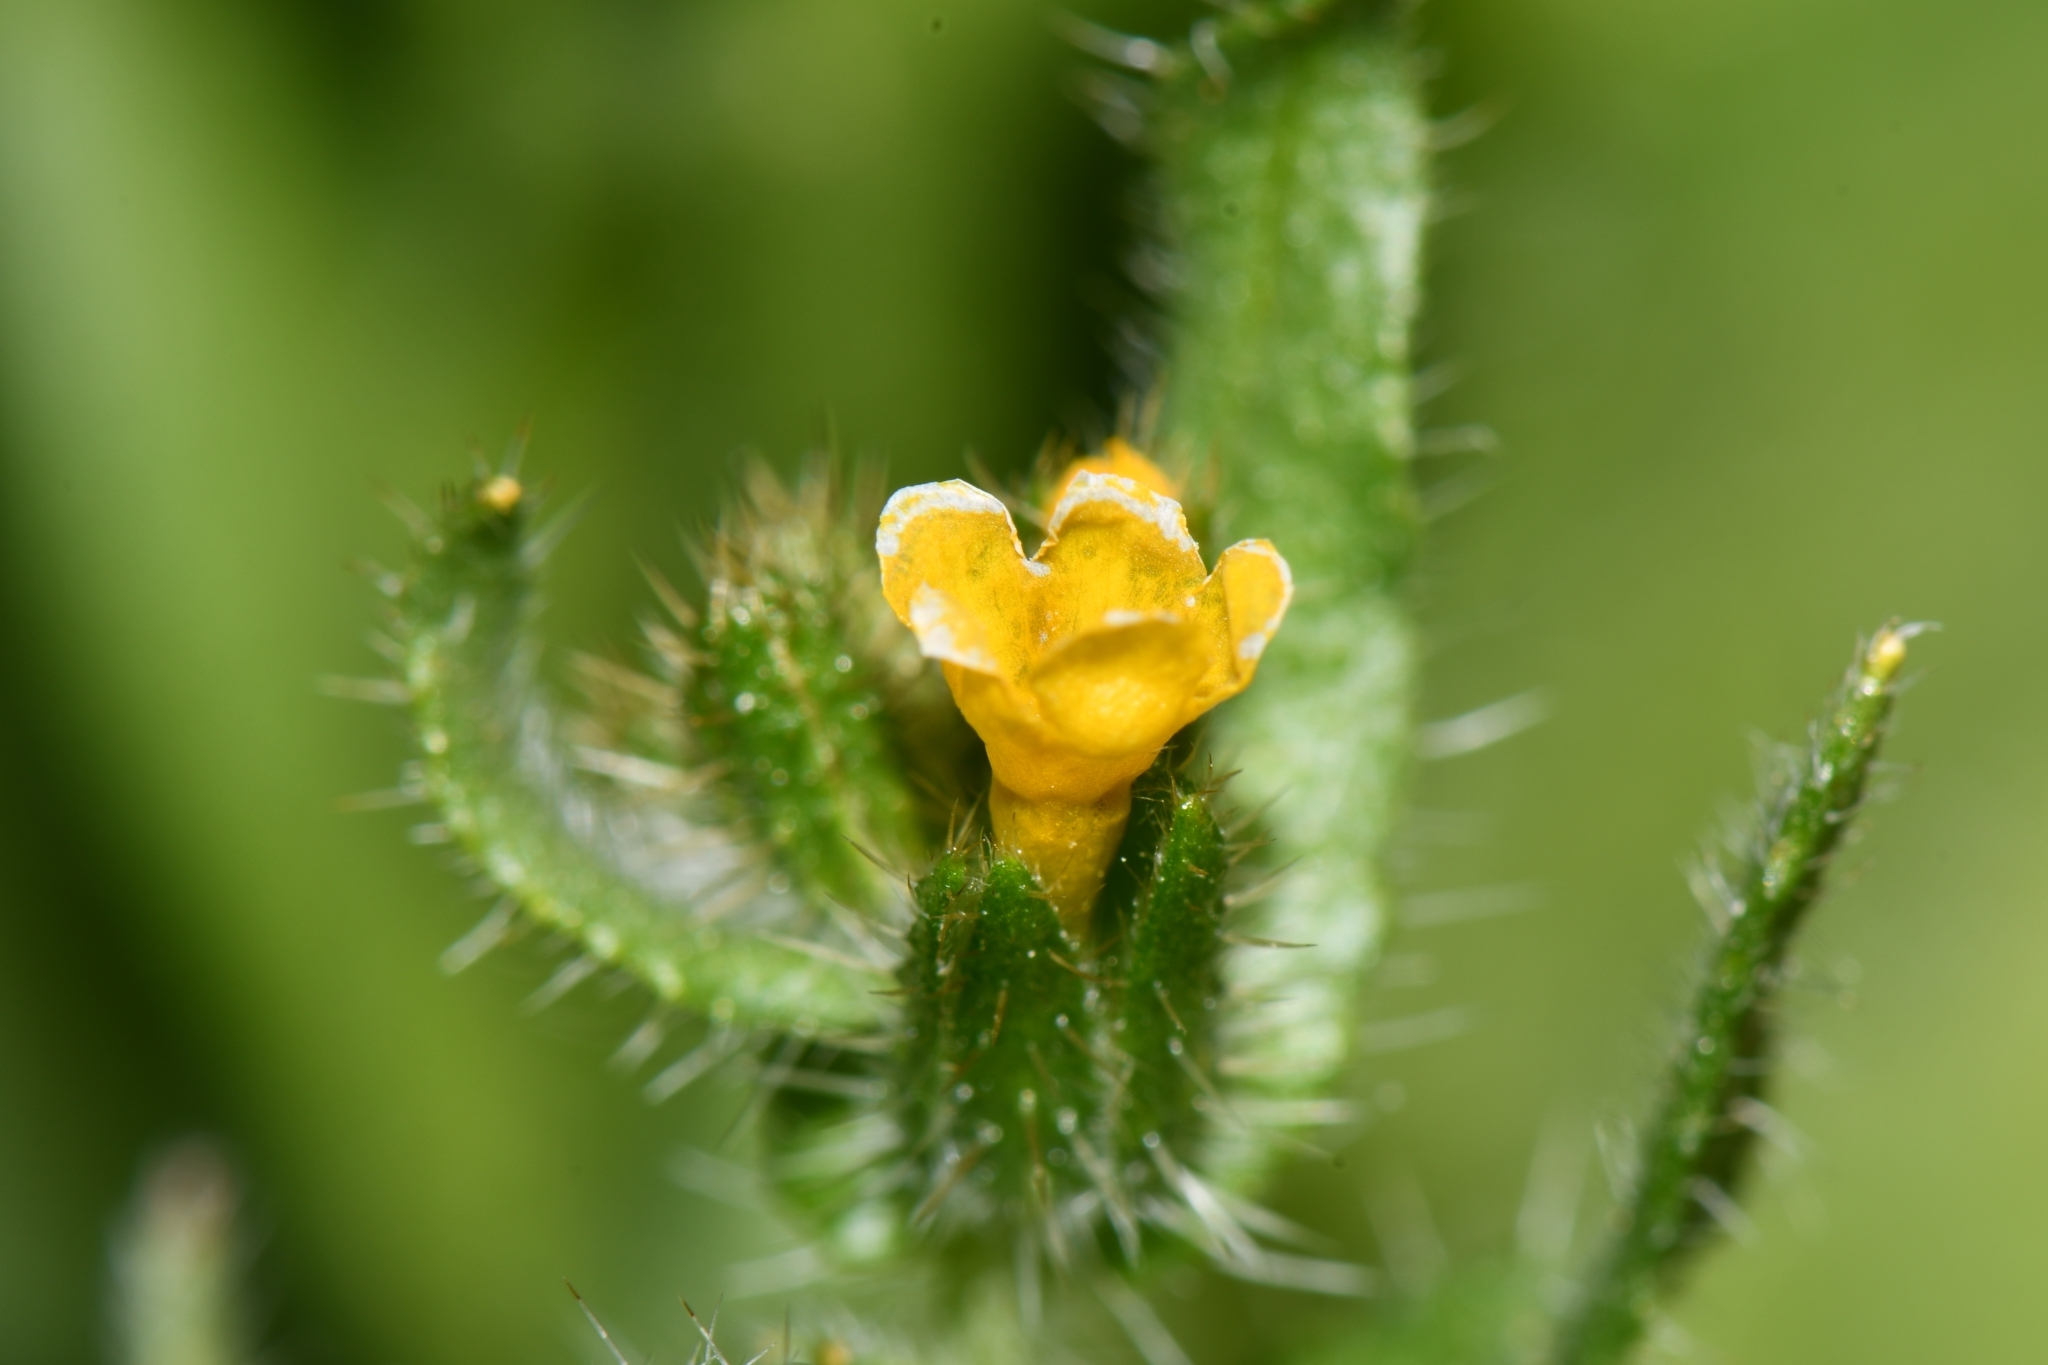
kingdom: Plantae
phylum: Tracheophyta
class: Magnoliopsida
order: Boraginales
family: Boraginaceae
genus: Amsinckia
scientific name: Amsinckia tessellata
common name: Tessellate fiddleneck
